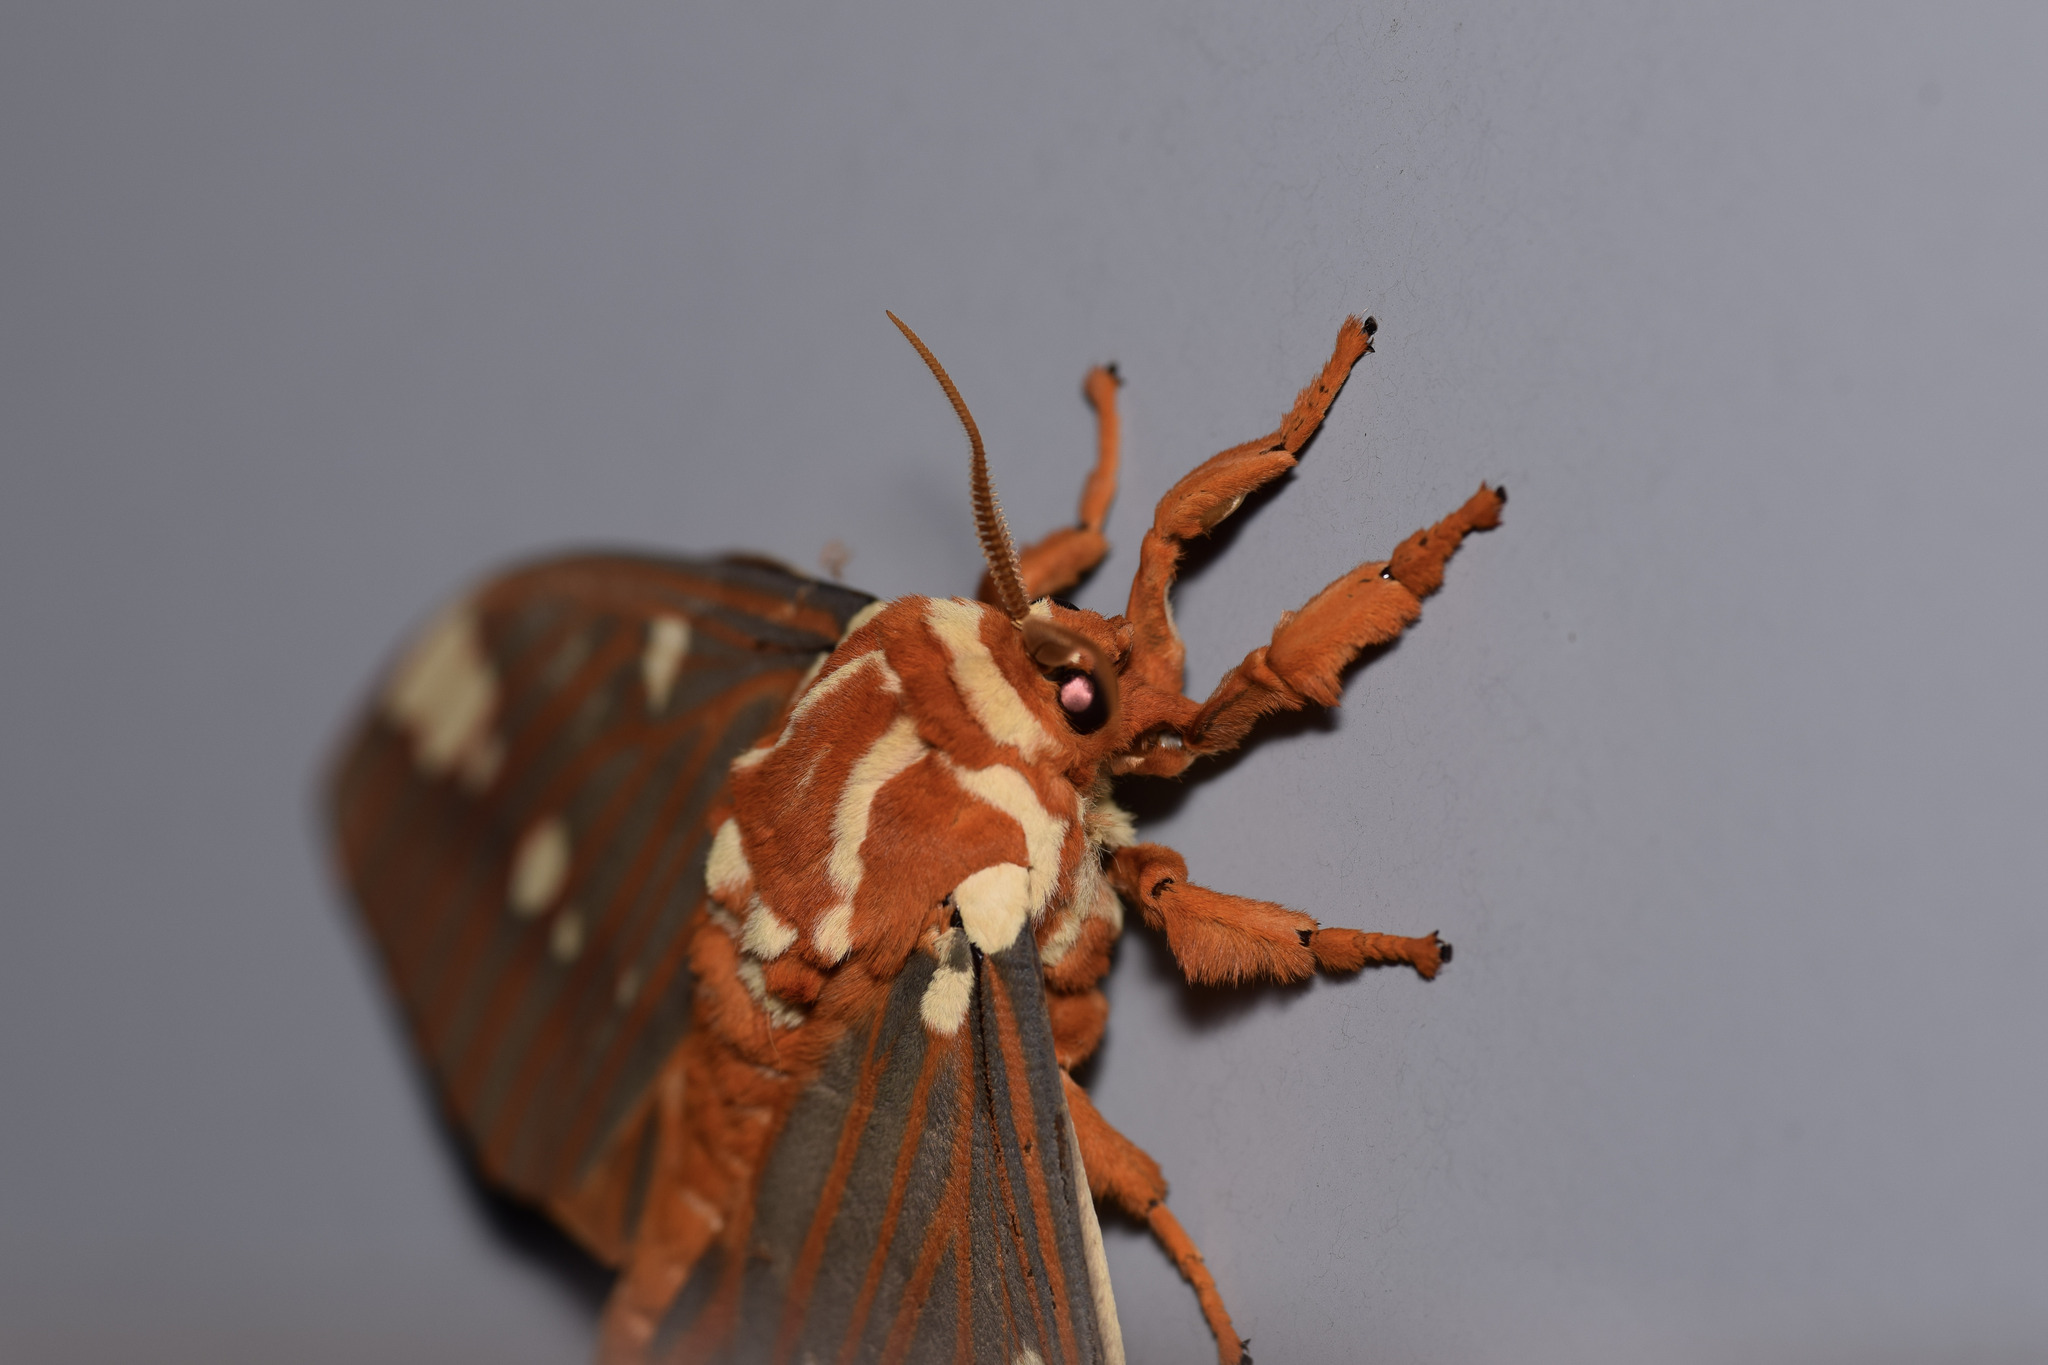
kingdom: Animalia
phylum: Arthropoda
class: Insecta
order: Lepidoptera
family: Saturniidae
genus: Citheronia
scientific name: Citheronia regalis
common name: Hickory horned devil
